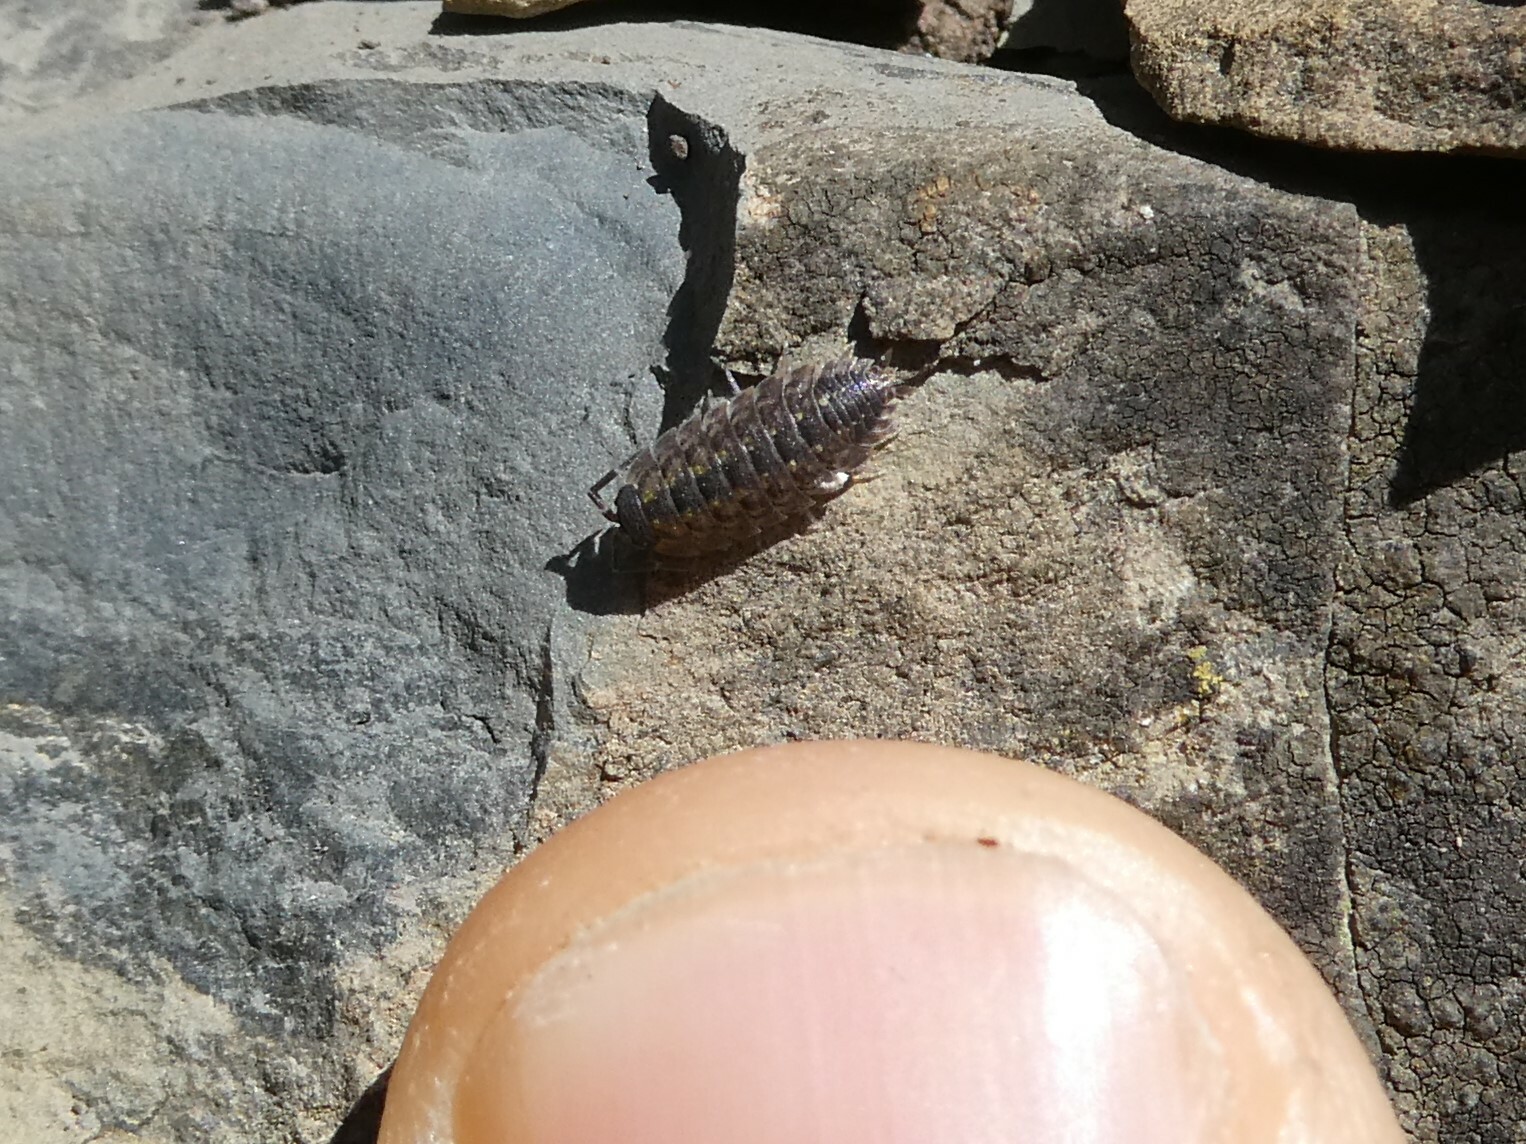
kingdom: Animalia
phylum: Arthropoda
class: Malacostraca
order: Isopoda
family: Porcellionidae
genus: Porcellio
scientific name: Porcellio spinicornis
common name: Painted woodlouse
